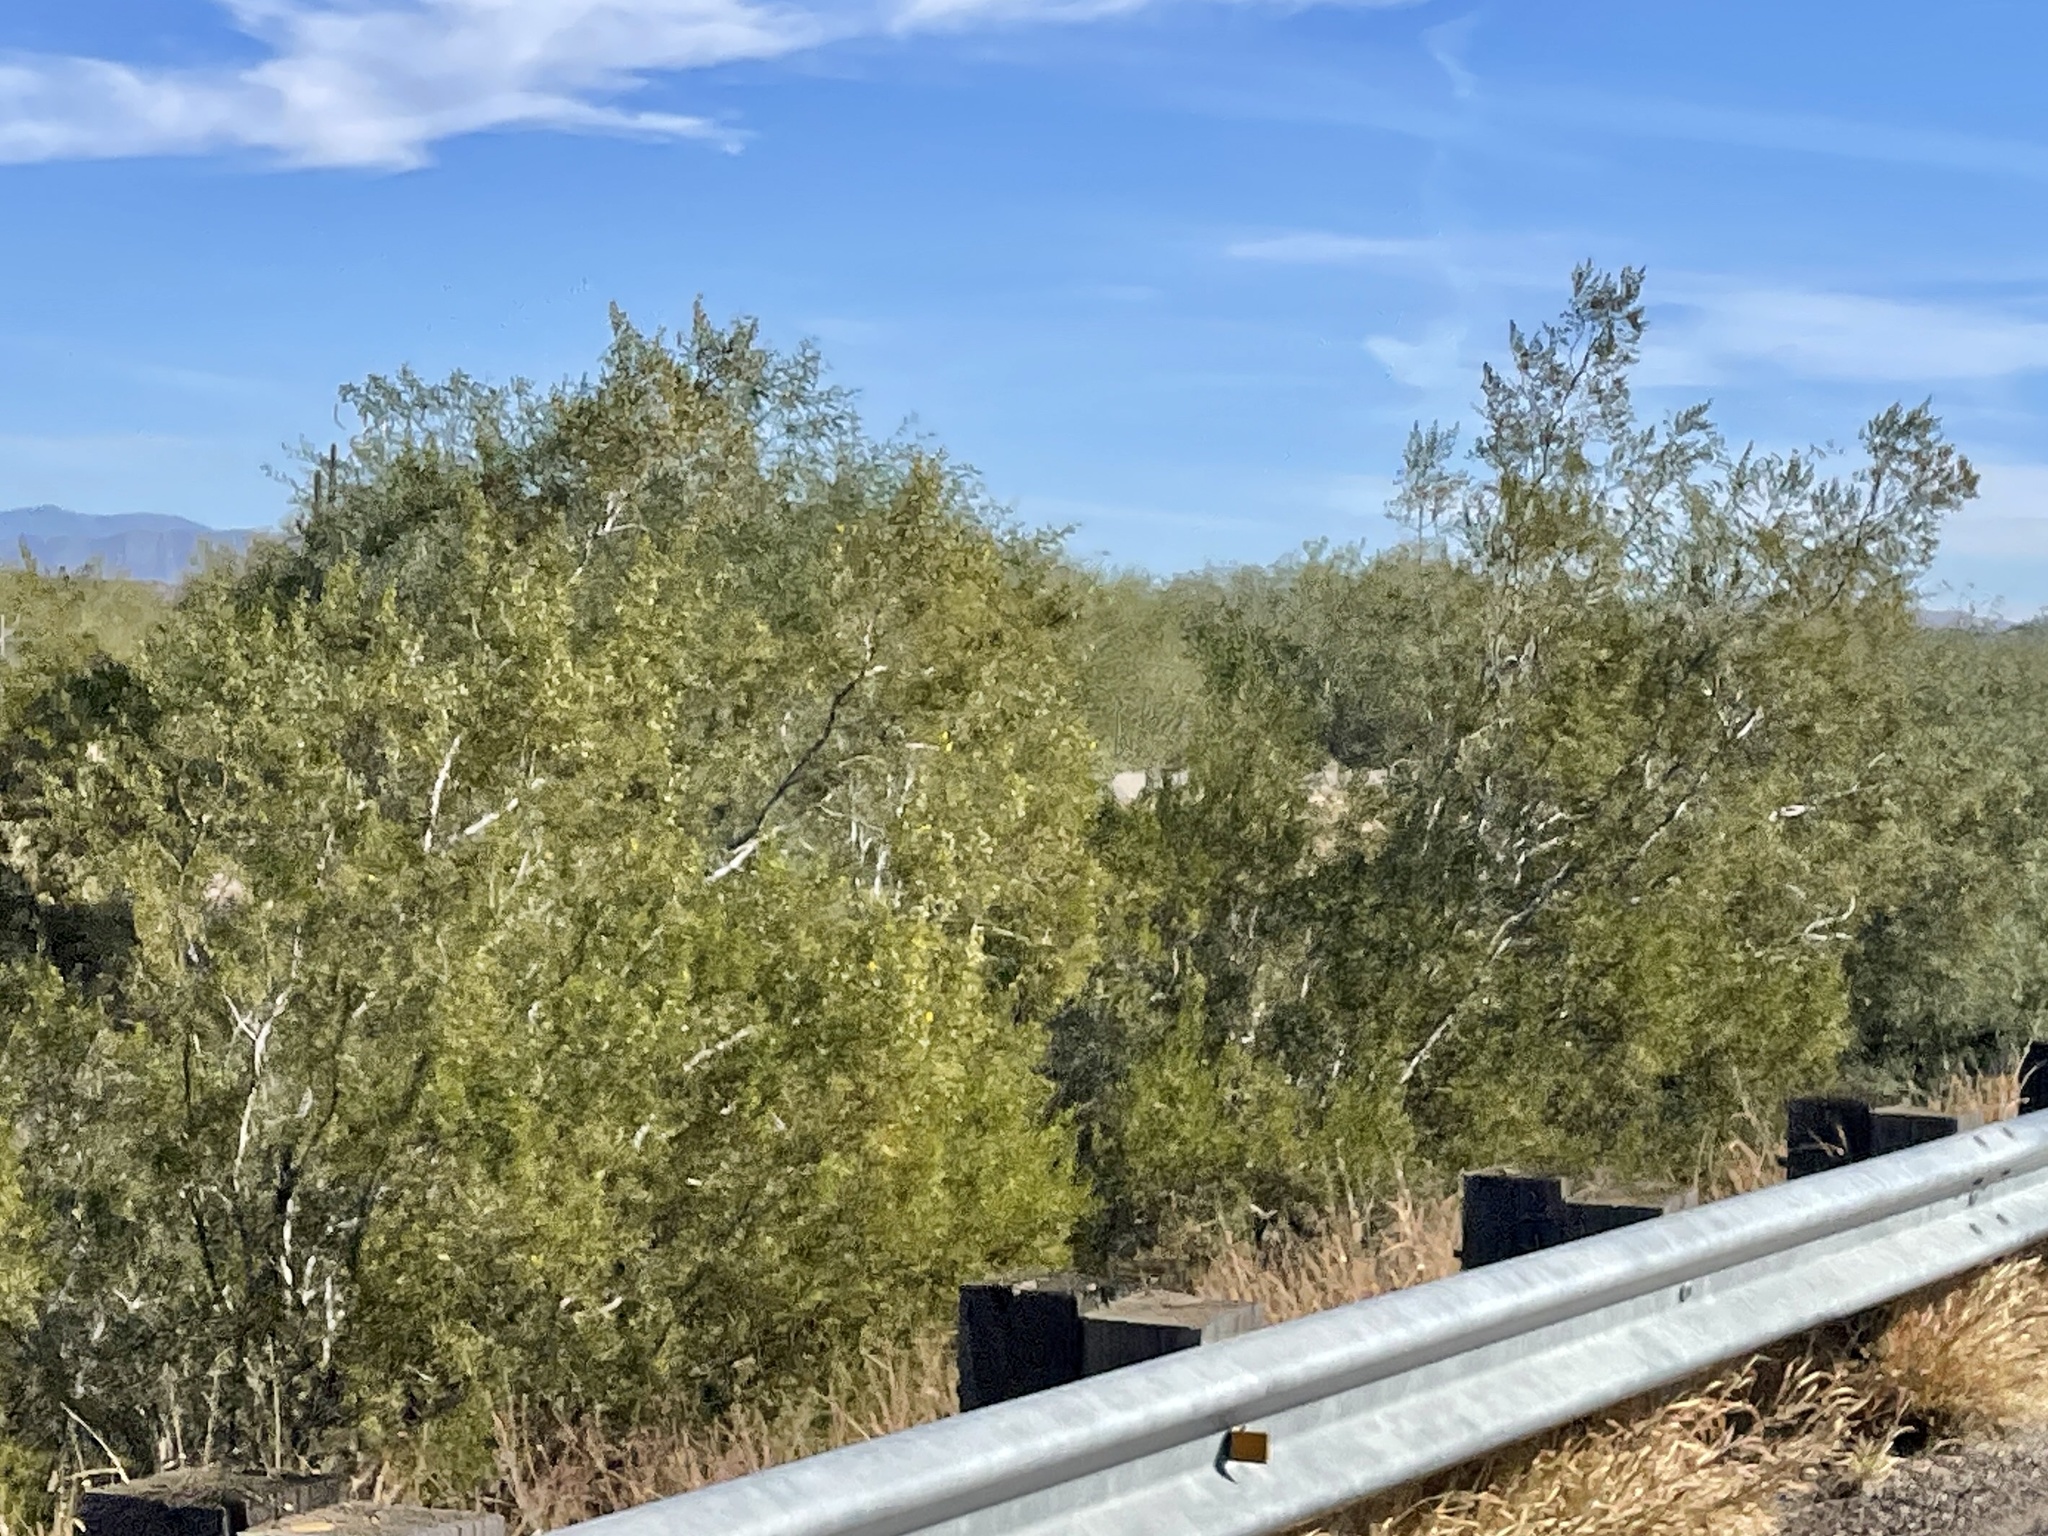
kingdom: Plantae
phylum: Tracheophyta
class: Magnoliopsida
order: Zygophyllales
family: Zygophyllaceae
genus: Larrea
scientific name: Larrea tridentata
